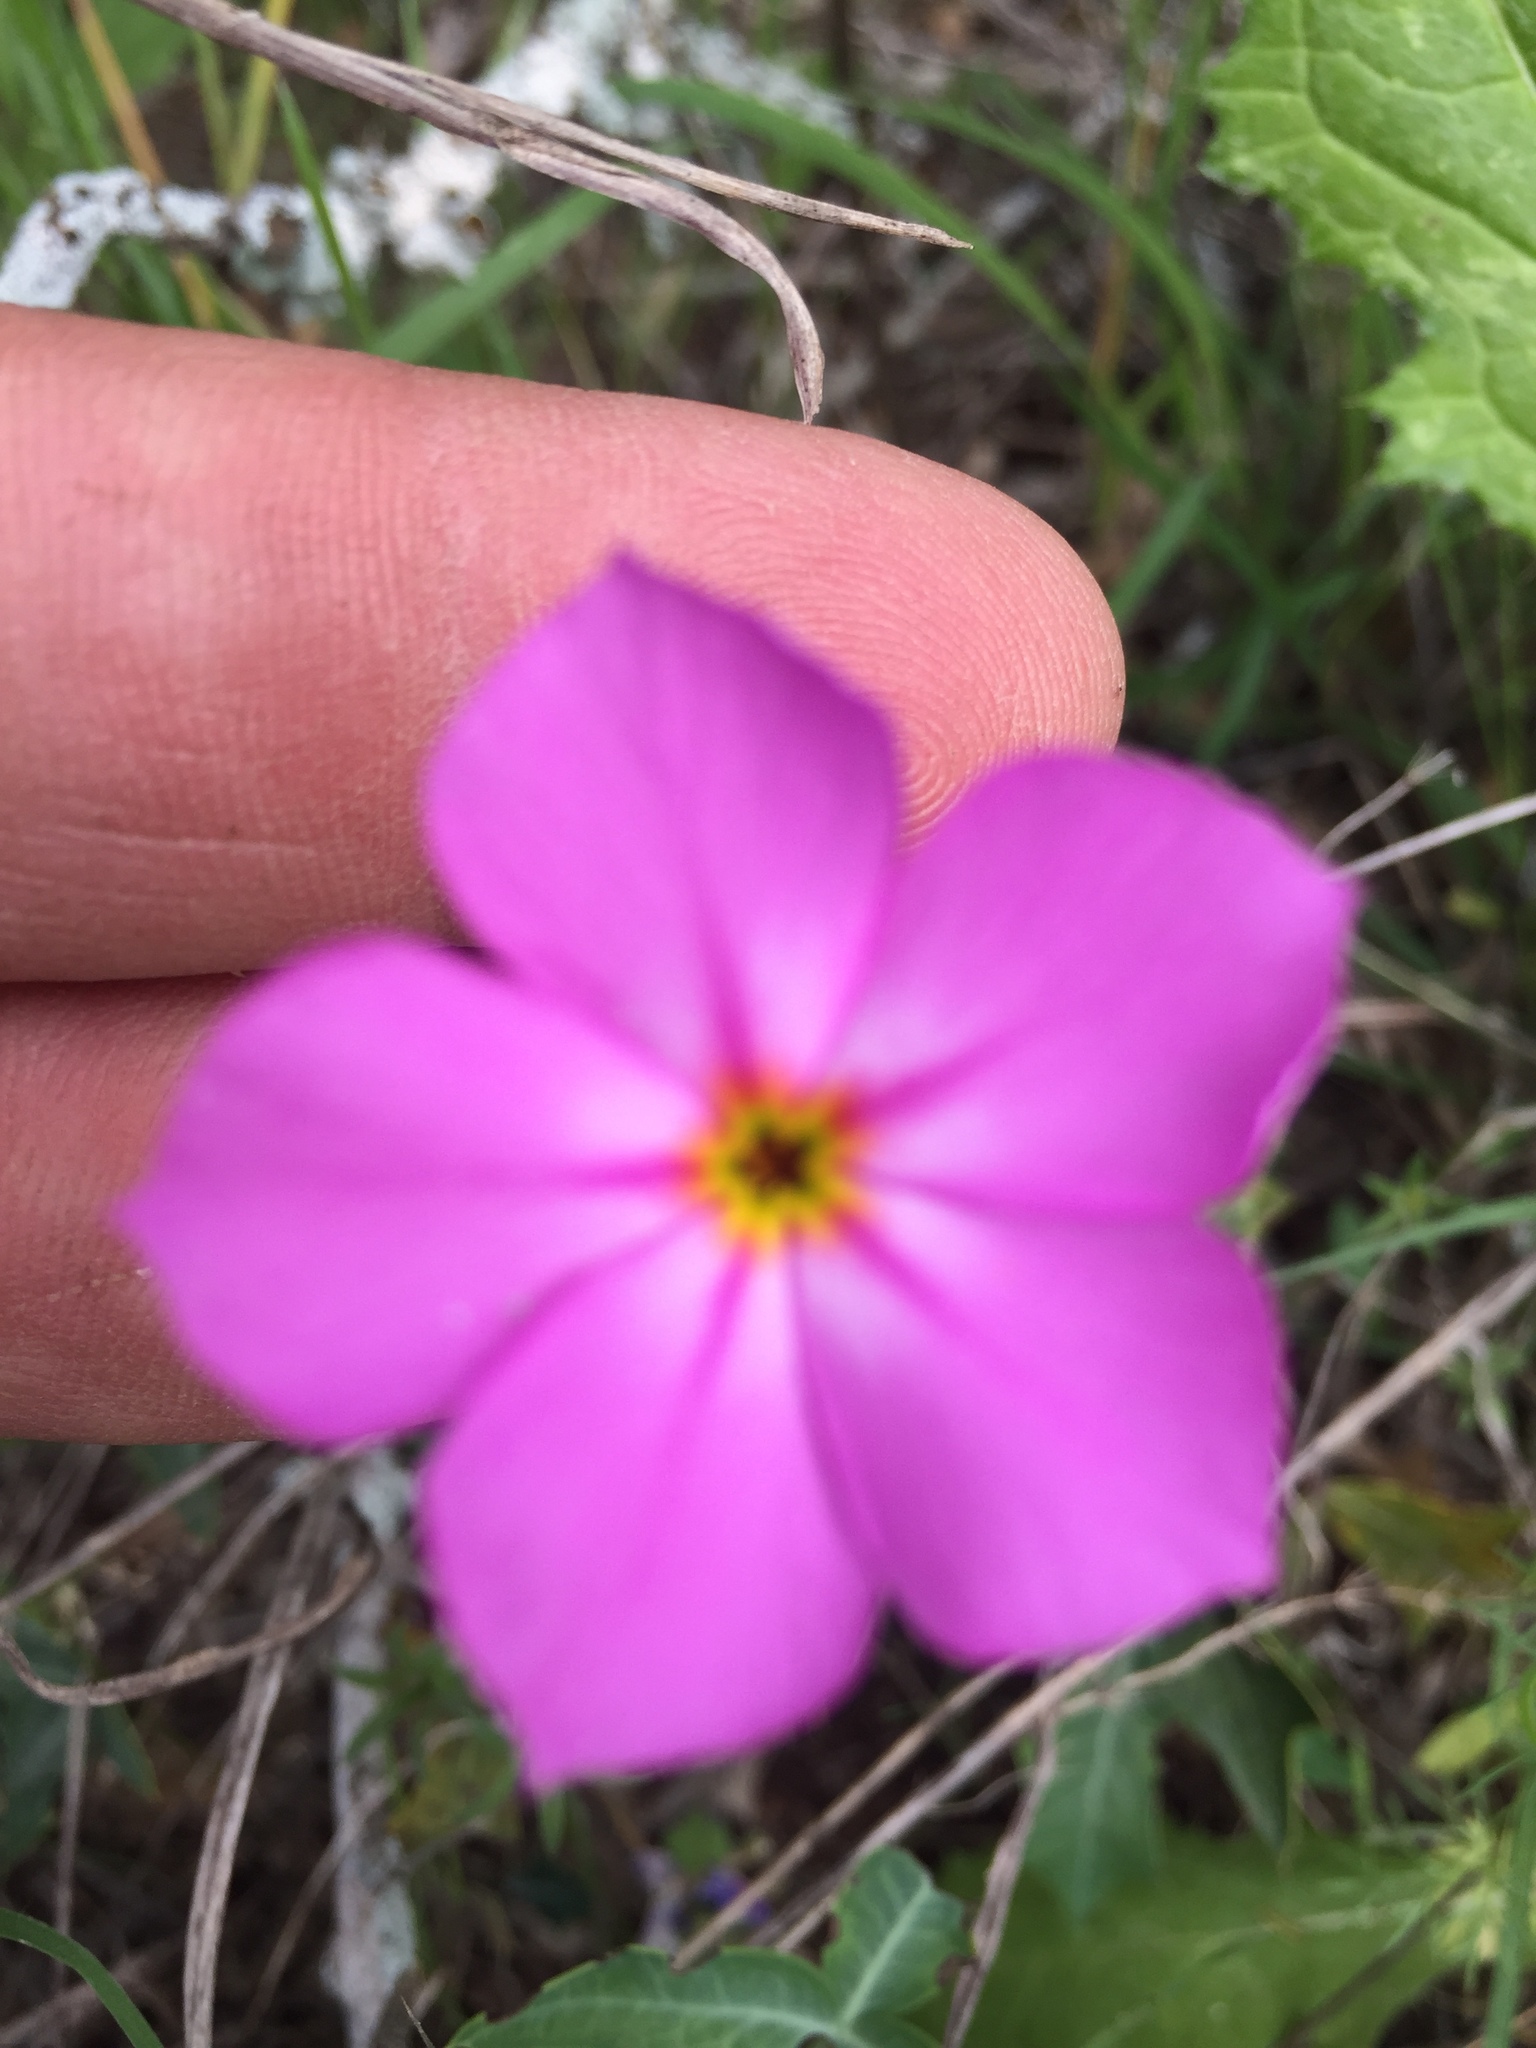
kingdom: Plantae
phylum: Tracheophyta
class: Magnoliopsida
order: Ericales
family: Polemoniaceae
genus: Phlox
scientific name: Phlox roemeriana
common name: Roemer's phlox
